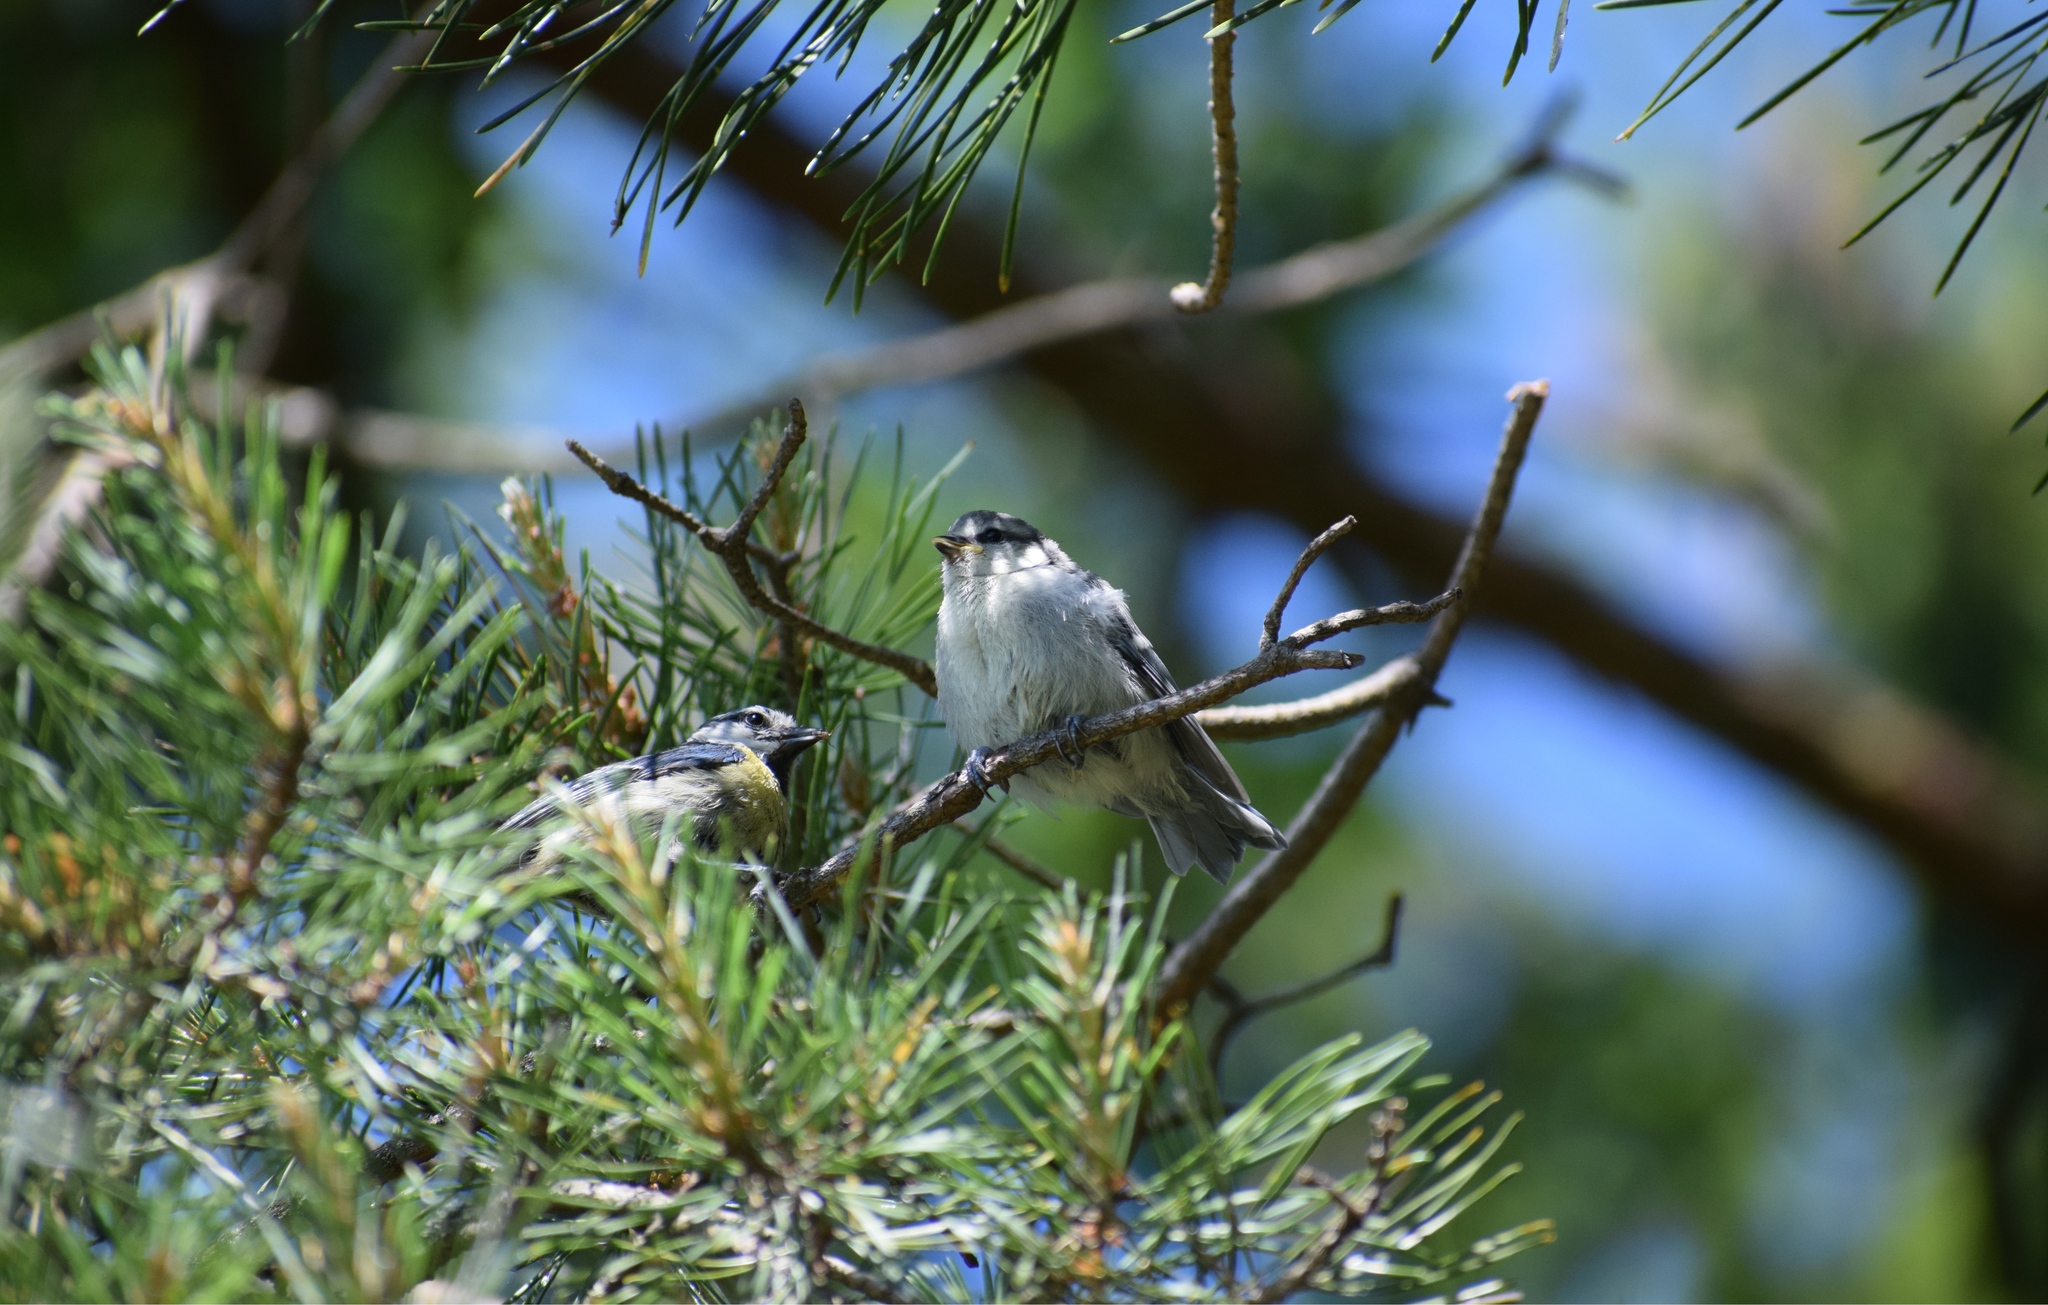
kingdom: Animalia
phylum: Chordata
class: Aves
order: Passeriformes
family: Paridae
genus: Cyanistes
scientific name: Cyanistes caeruleus
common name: Eurasian blue tit
